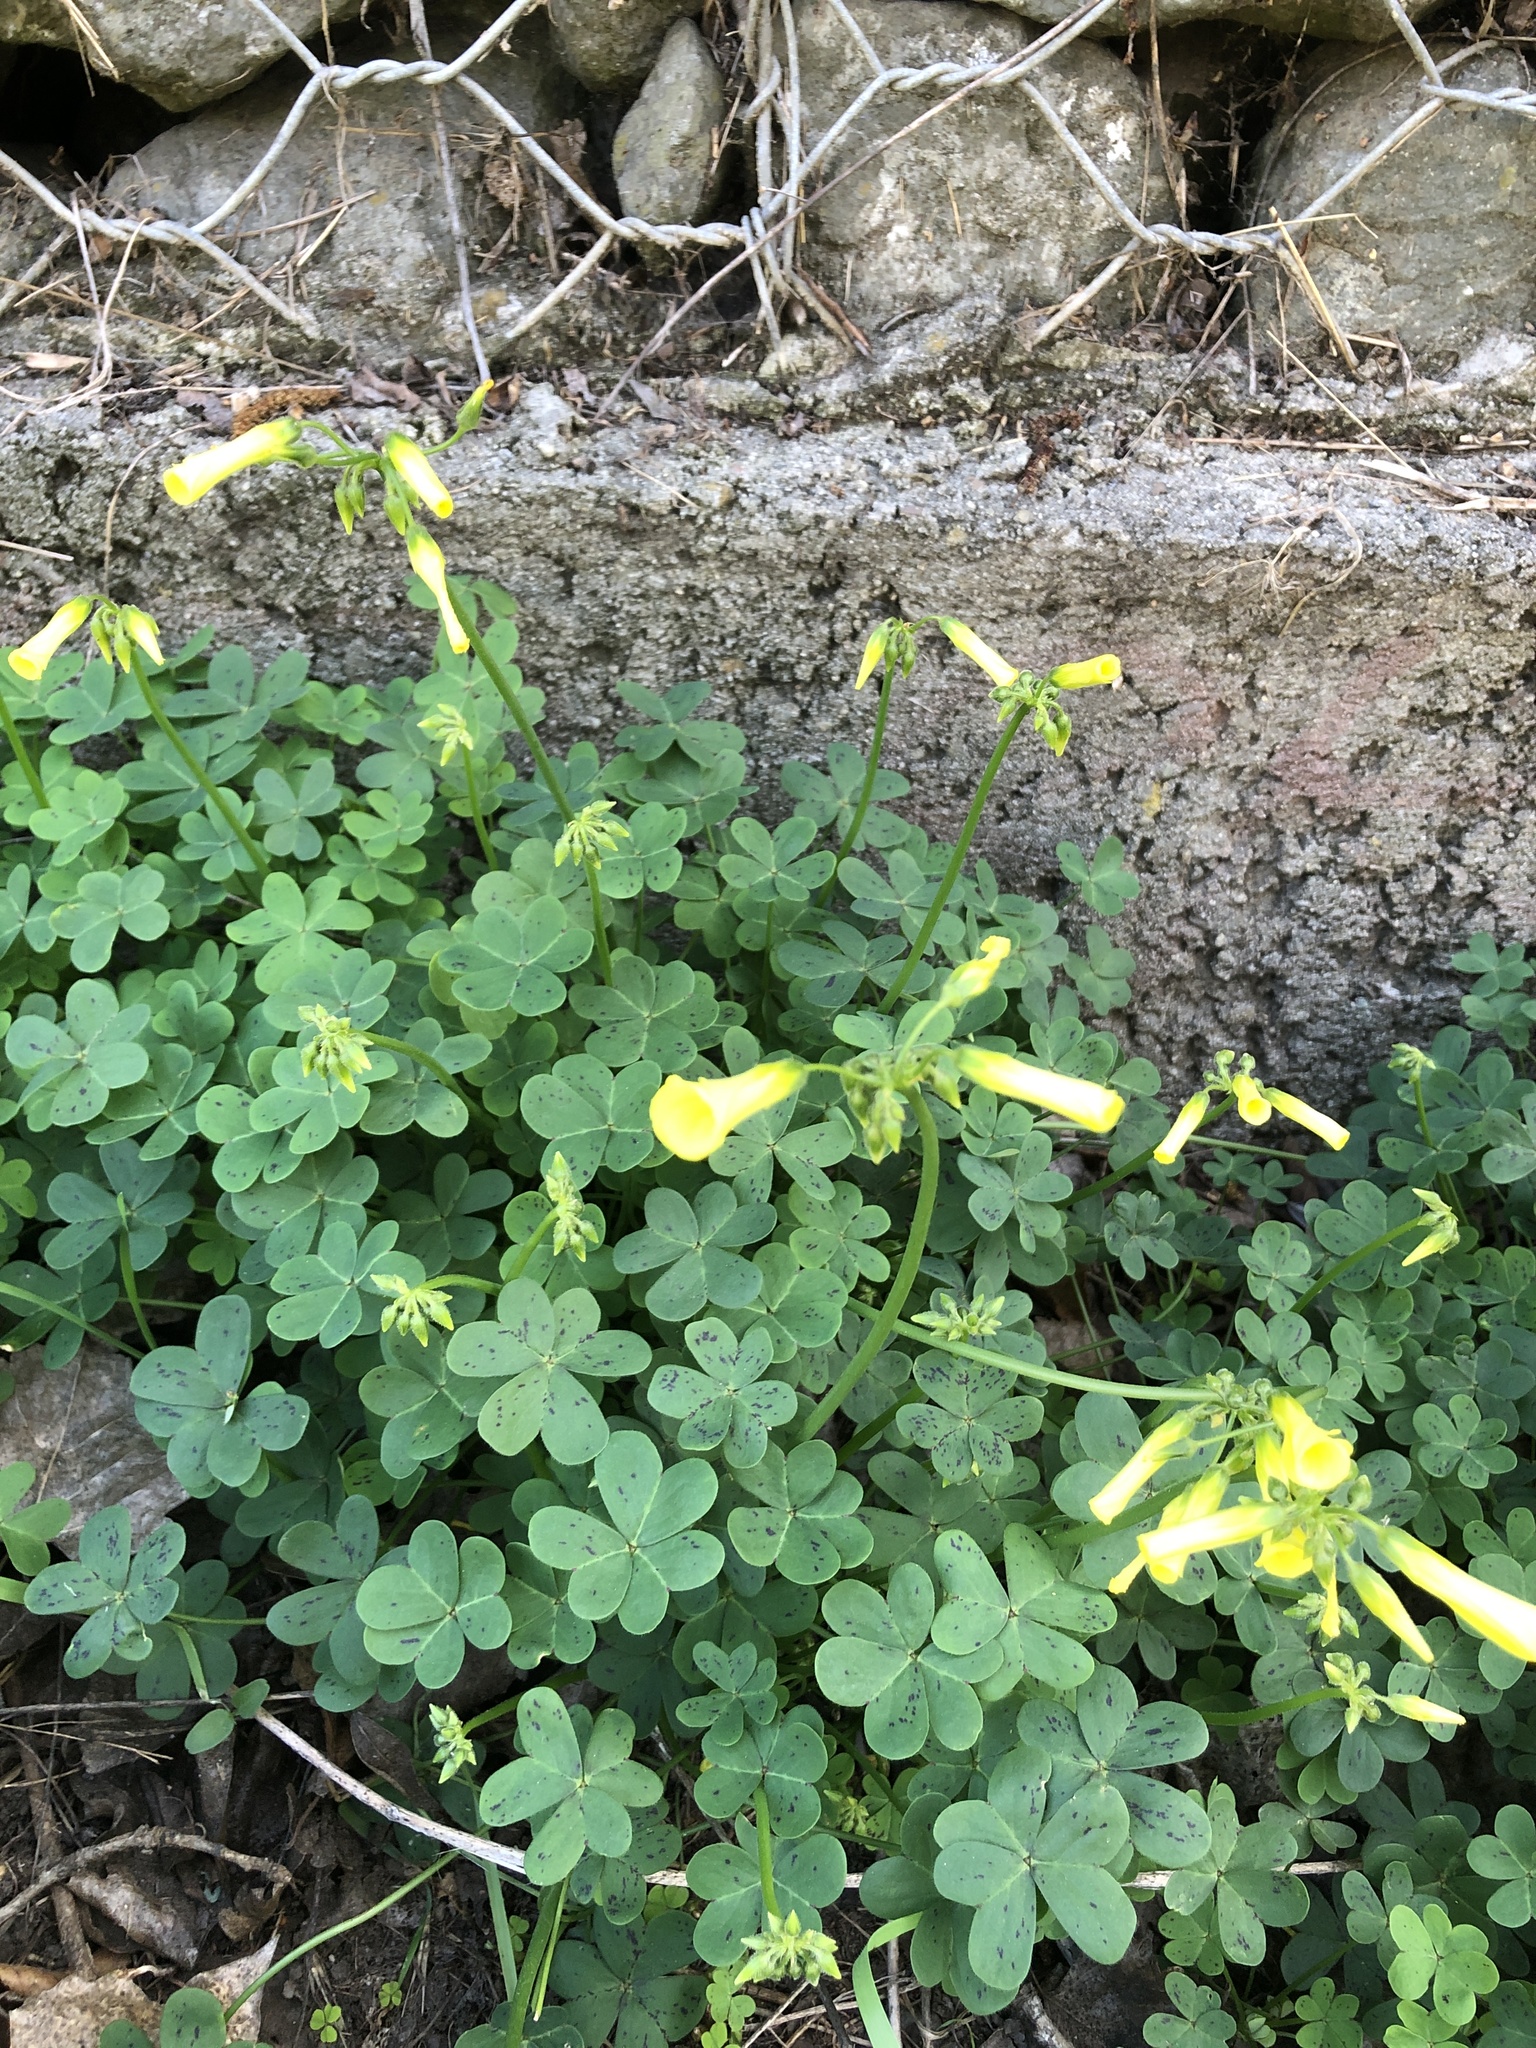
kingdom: Plantae
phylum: Tracheophyta
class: Magnoliopsida
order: Oxalidales
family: Oxalidaceae
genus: Oxalis
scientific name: Oxalis pes-caprae
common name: Bermuda-buttercup
